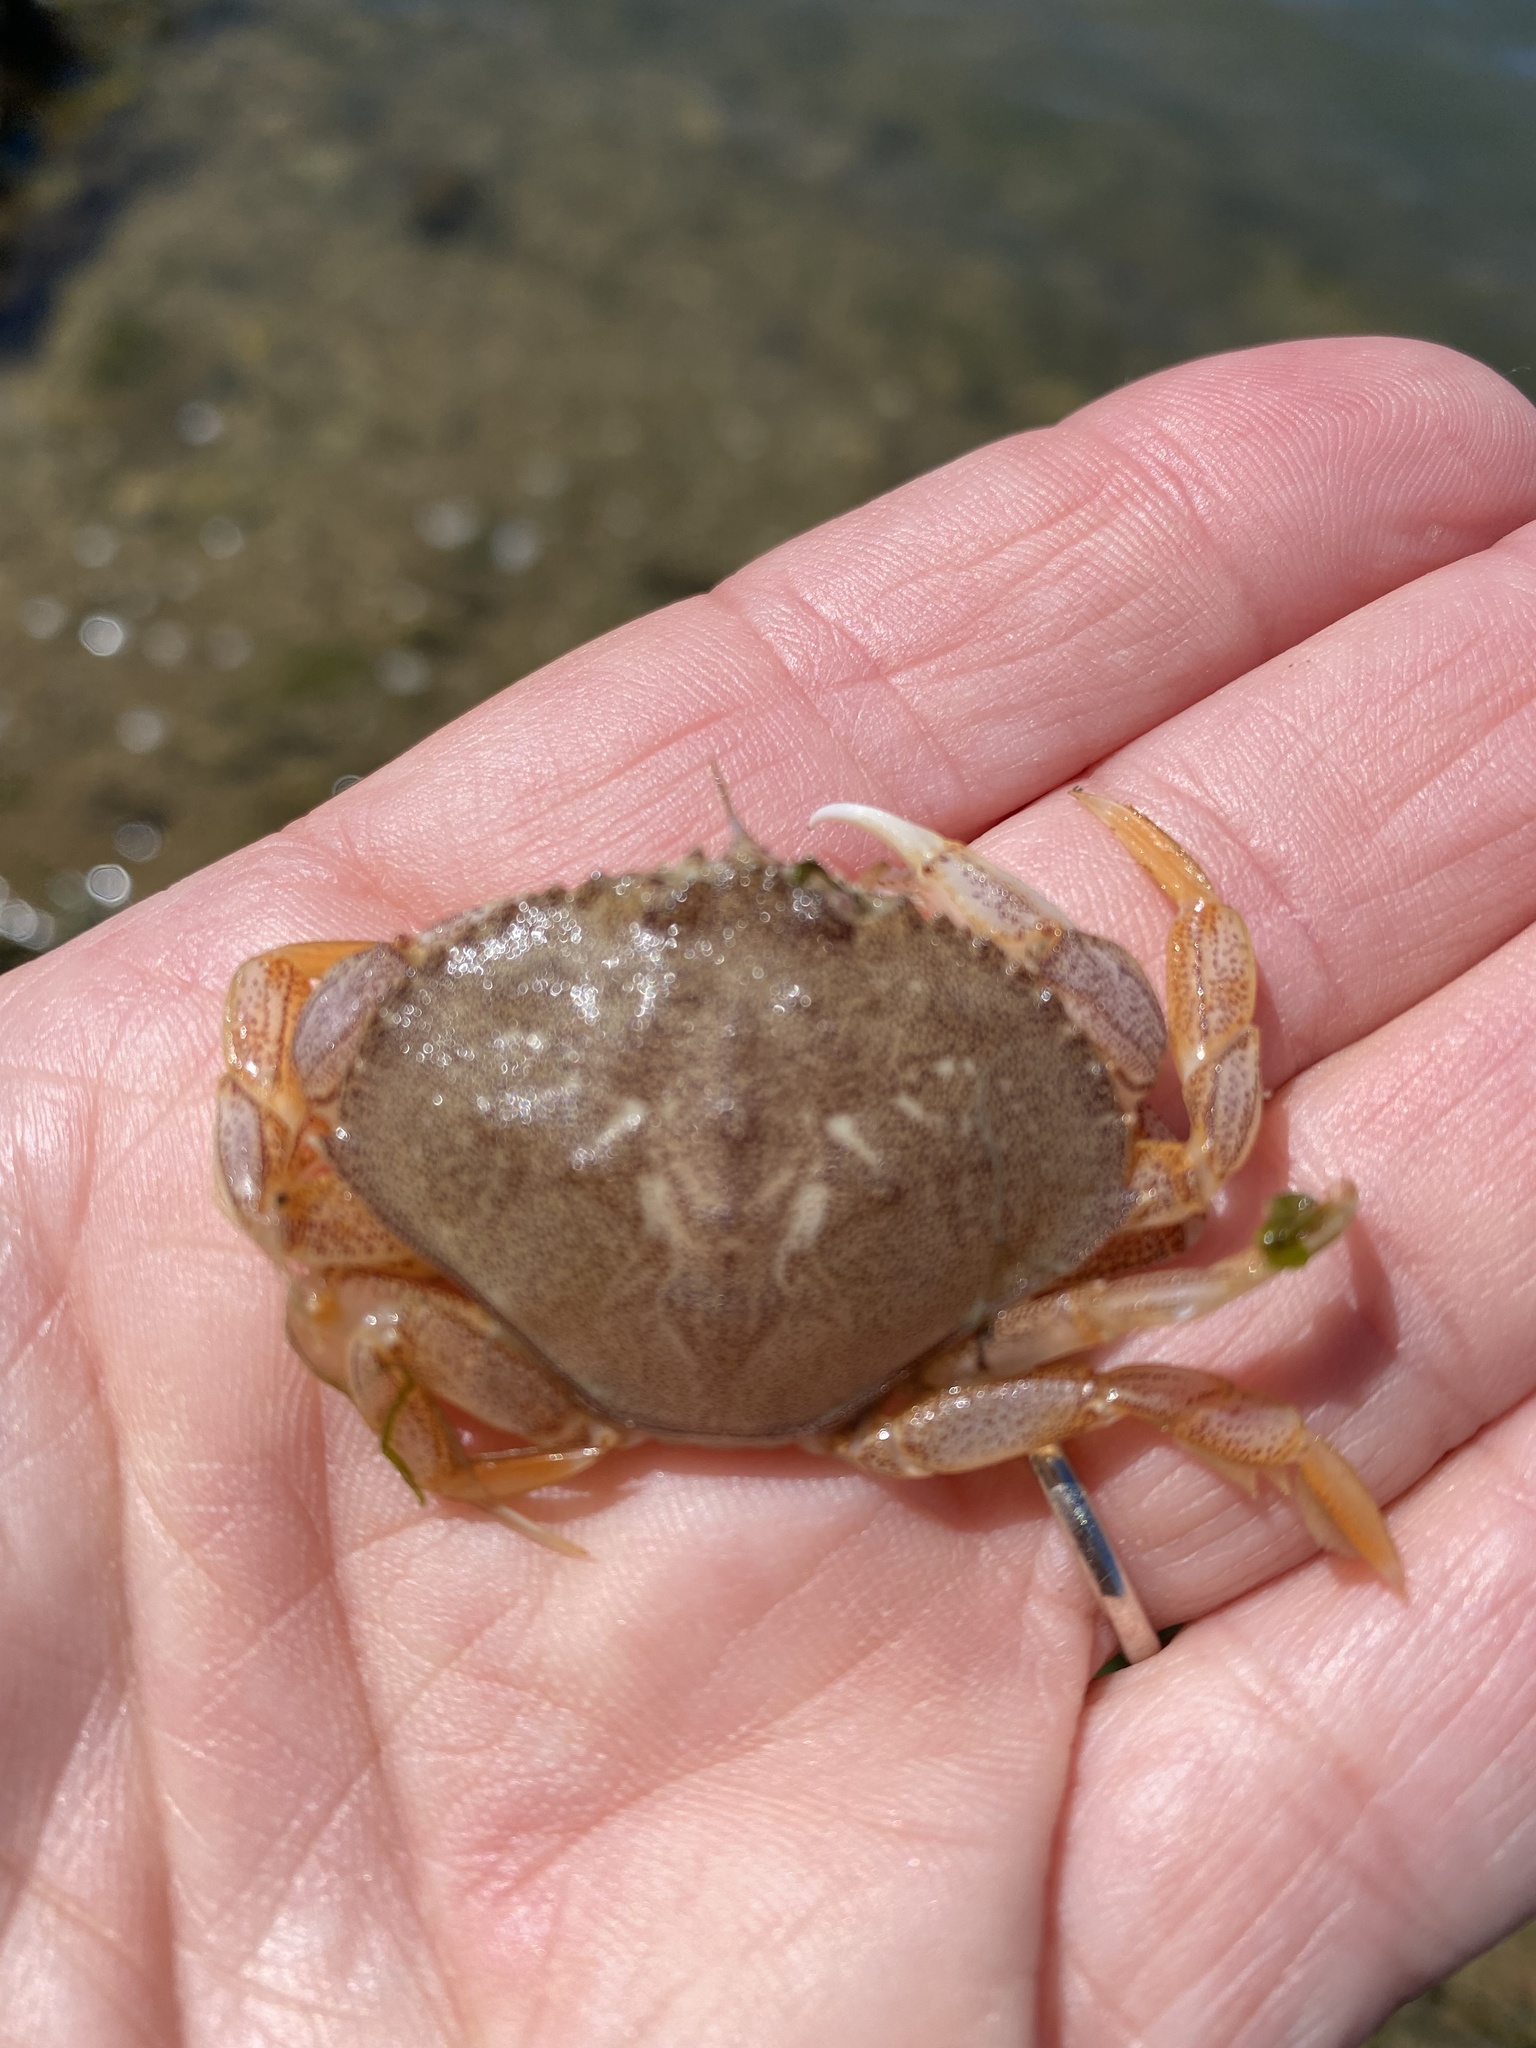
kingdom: Animalia
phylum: Arthropoda
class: Malacostraca
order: Decapoda
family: Cancridae
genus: Metacarcinus
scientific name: Metacarcinus magister
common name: Californian crab
